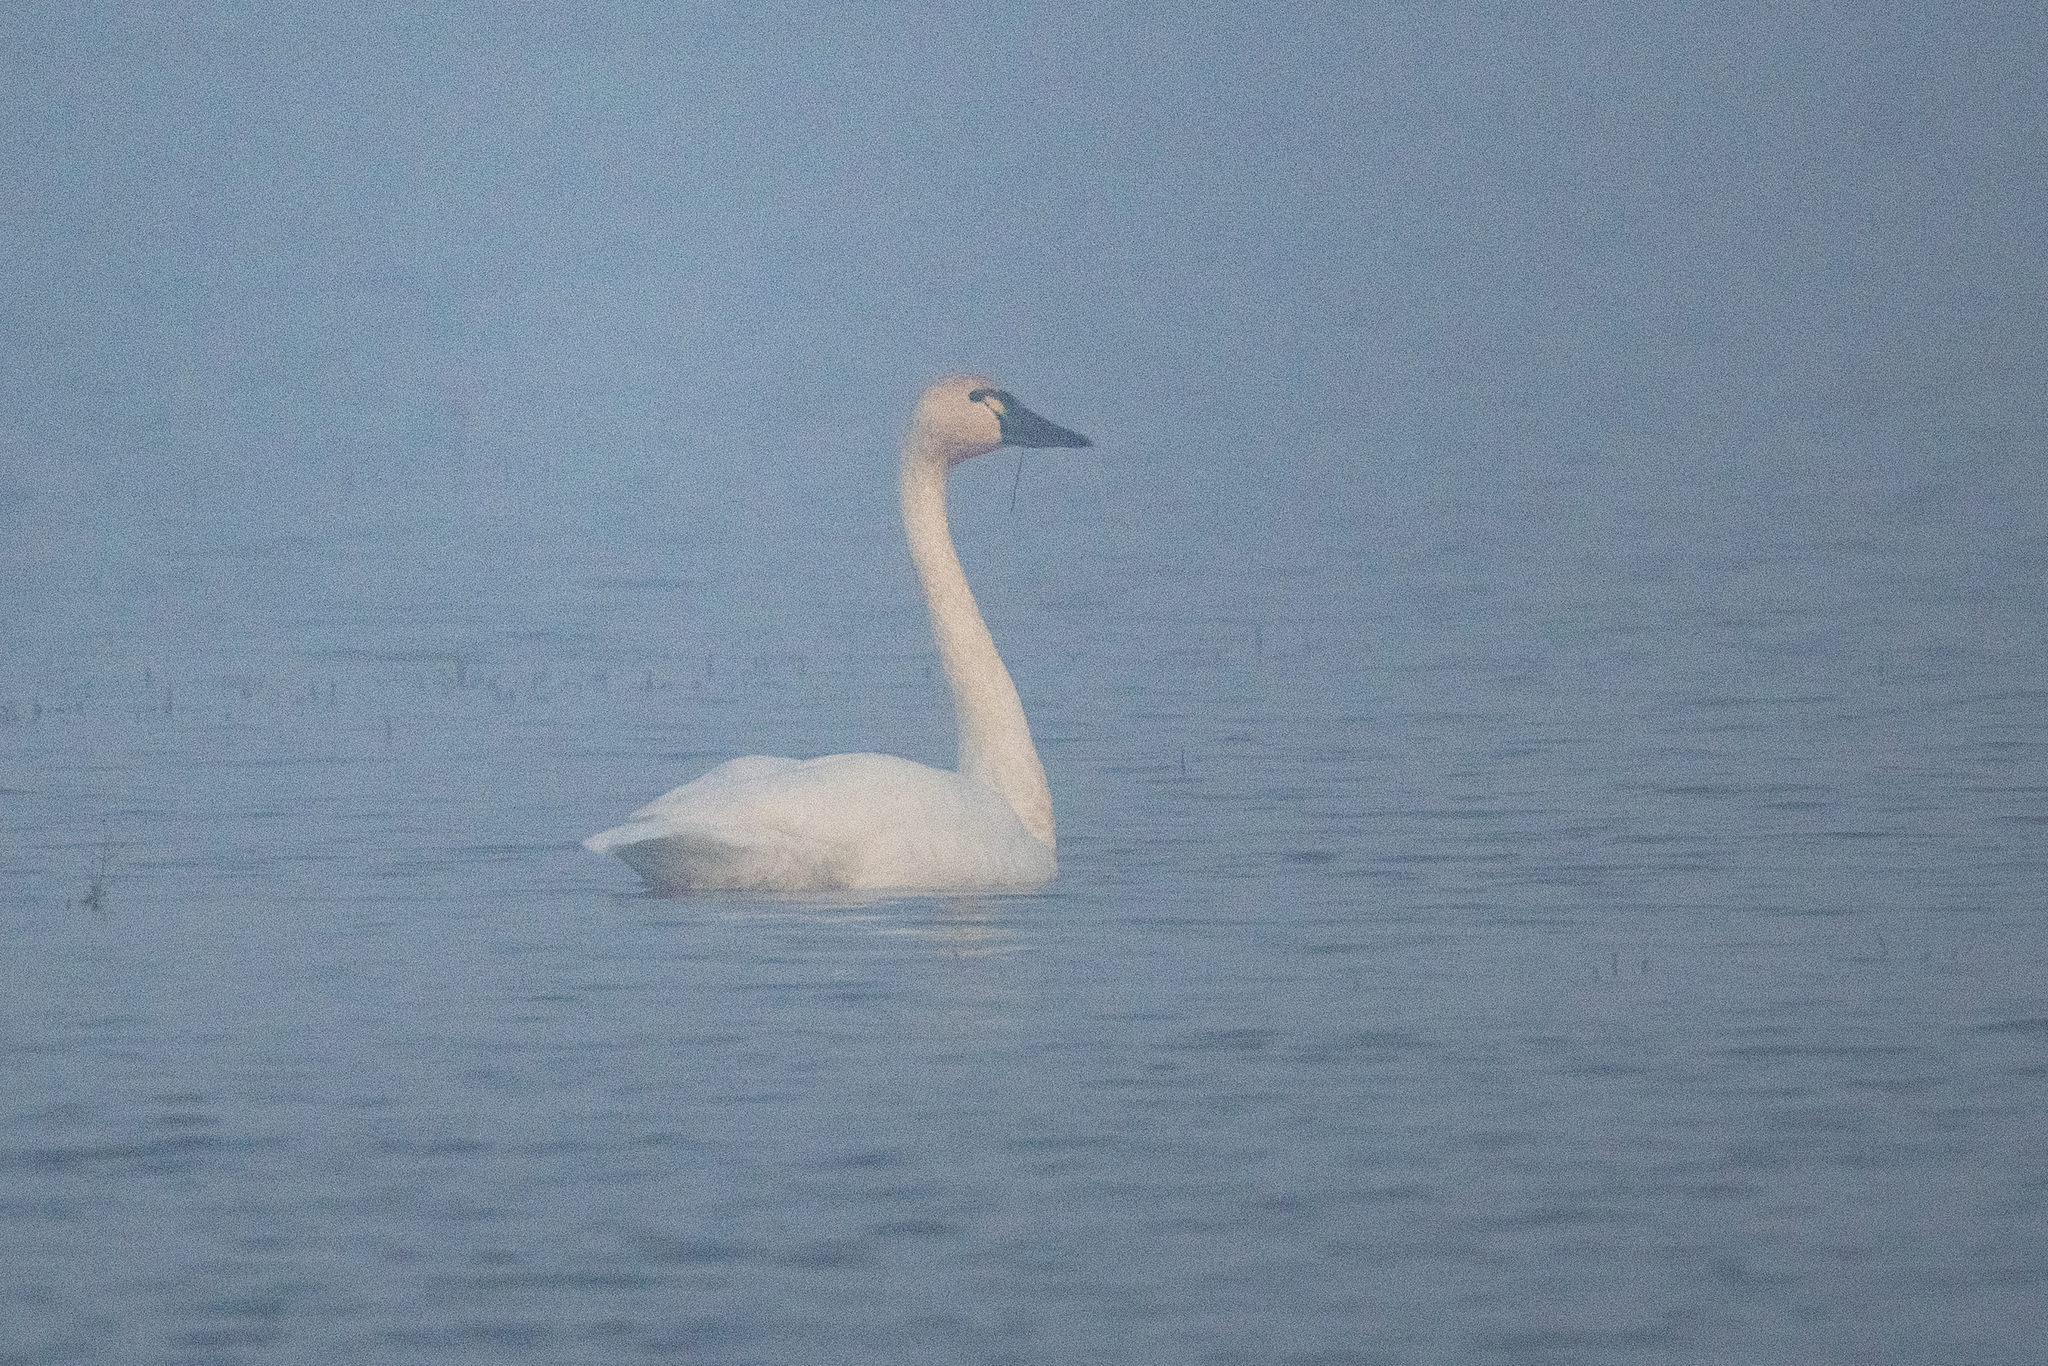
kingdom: Animalia
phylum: Chordata
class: Aves
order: Anseriformes
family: Anatidae
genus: Cygnus
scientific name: Cygnus columbianus
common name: Tundra swan
